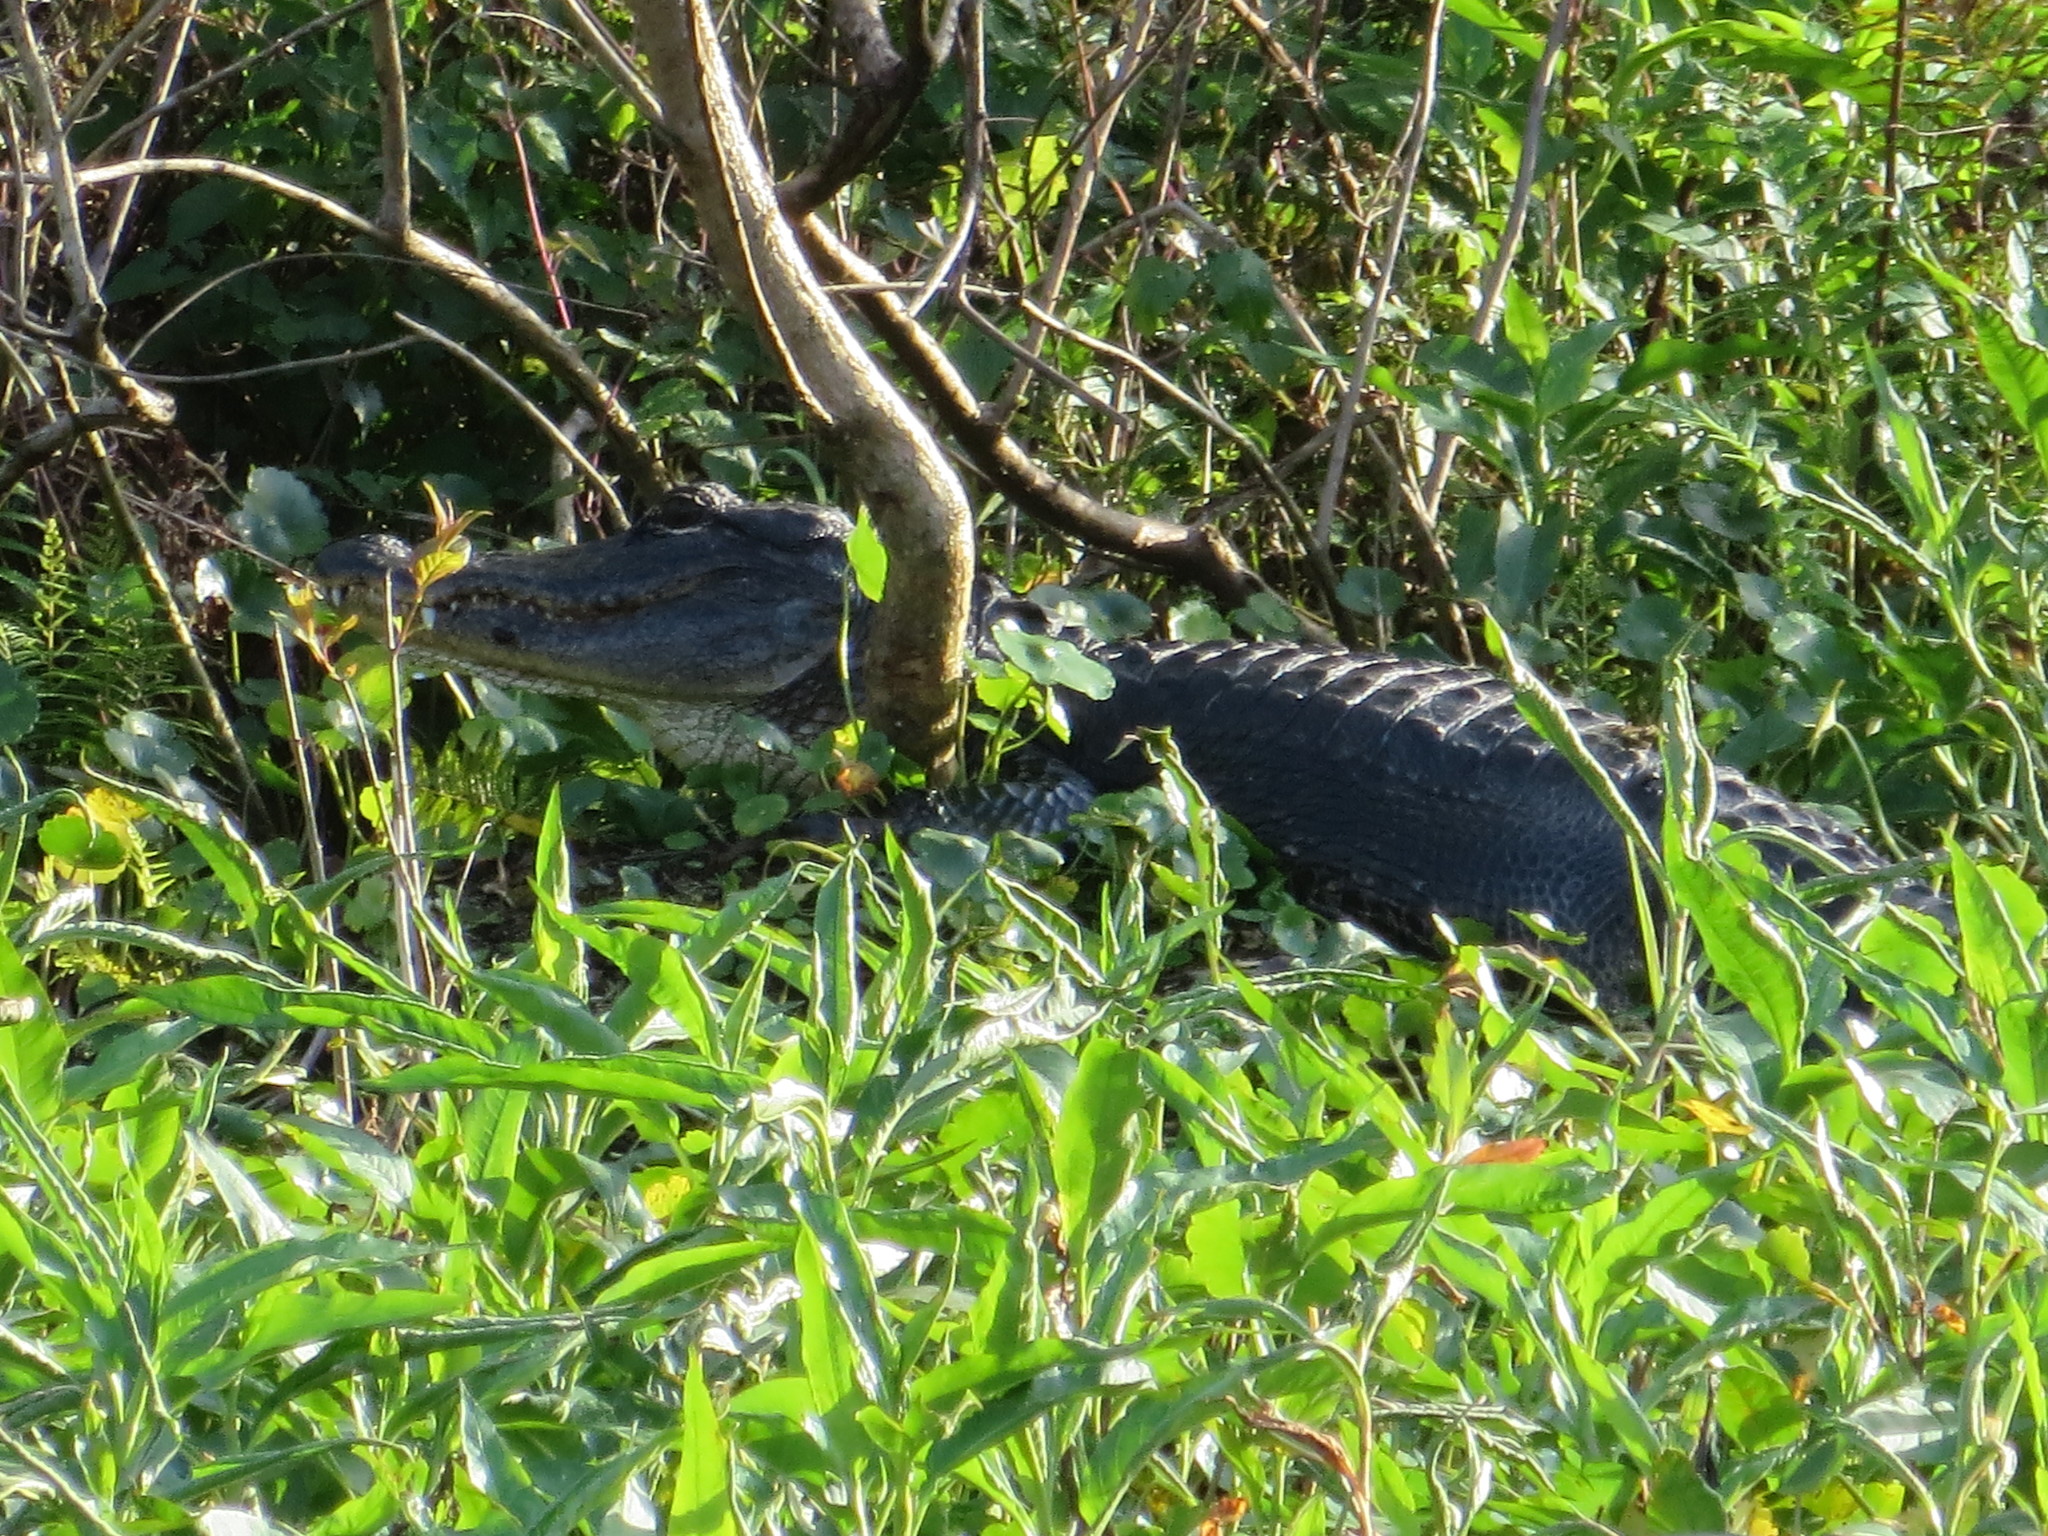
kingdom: Animalia
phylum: Chordata
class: Crocodylia
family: Alligatoridae
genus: Alligator
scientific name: Alligator mississippiensis
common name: American alligator
